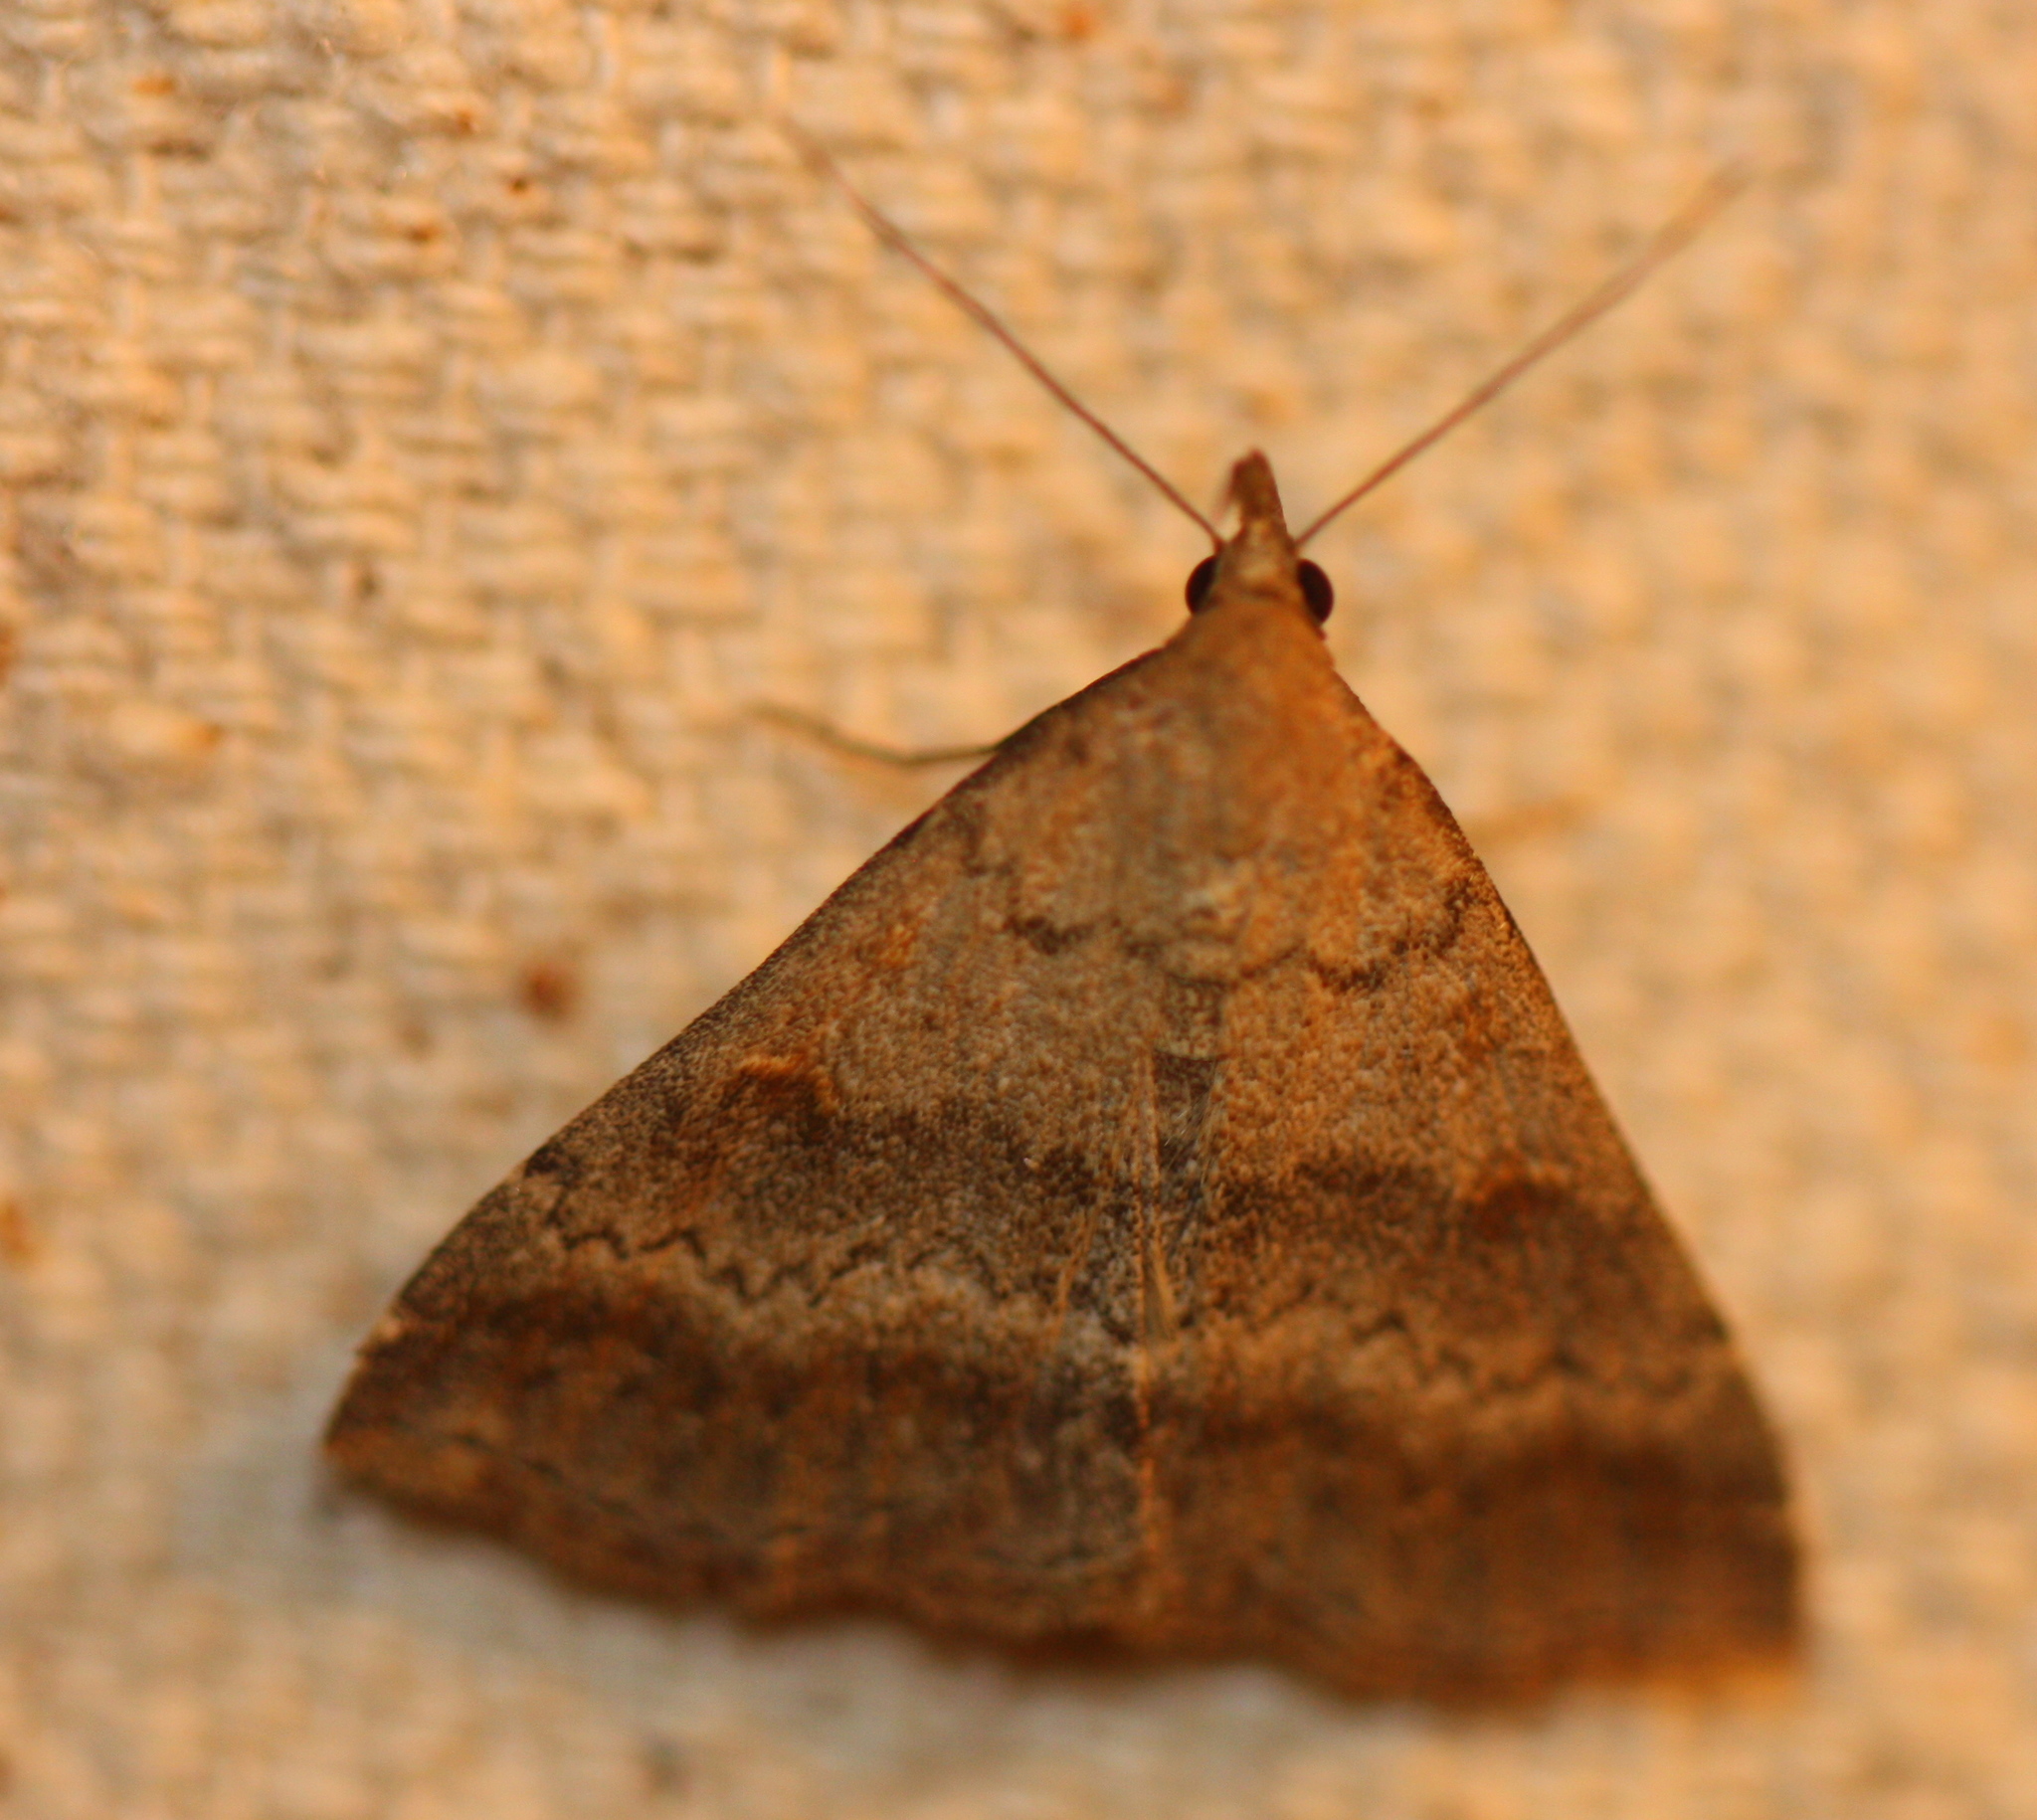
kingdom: Animalia
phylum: Arthropoda
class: Insecta
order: Lepidoptera
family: Erebidae
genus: Tetanolita
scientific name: Tetanolita palligera
